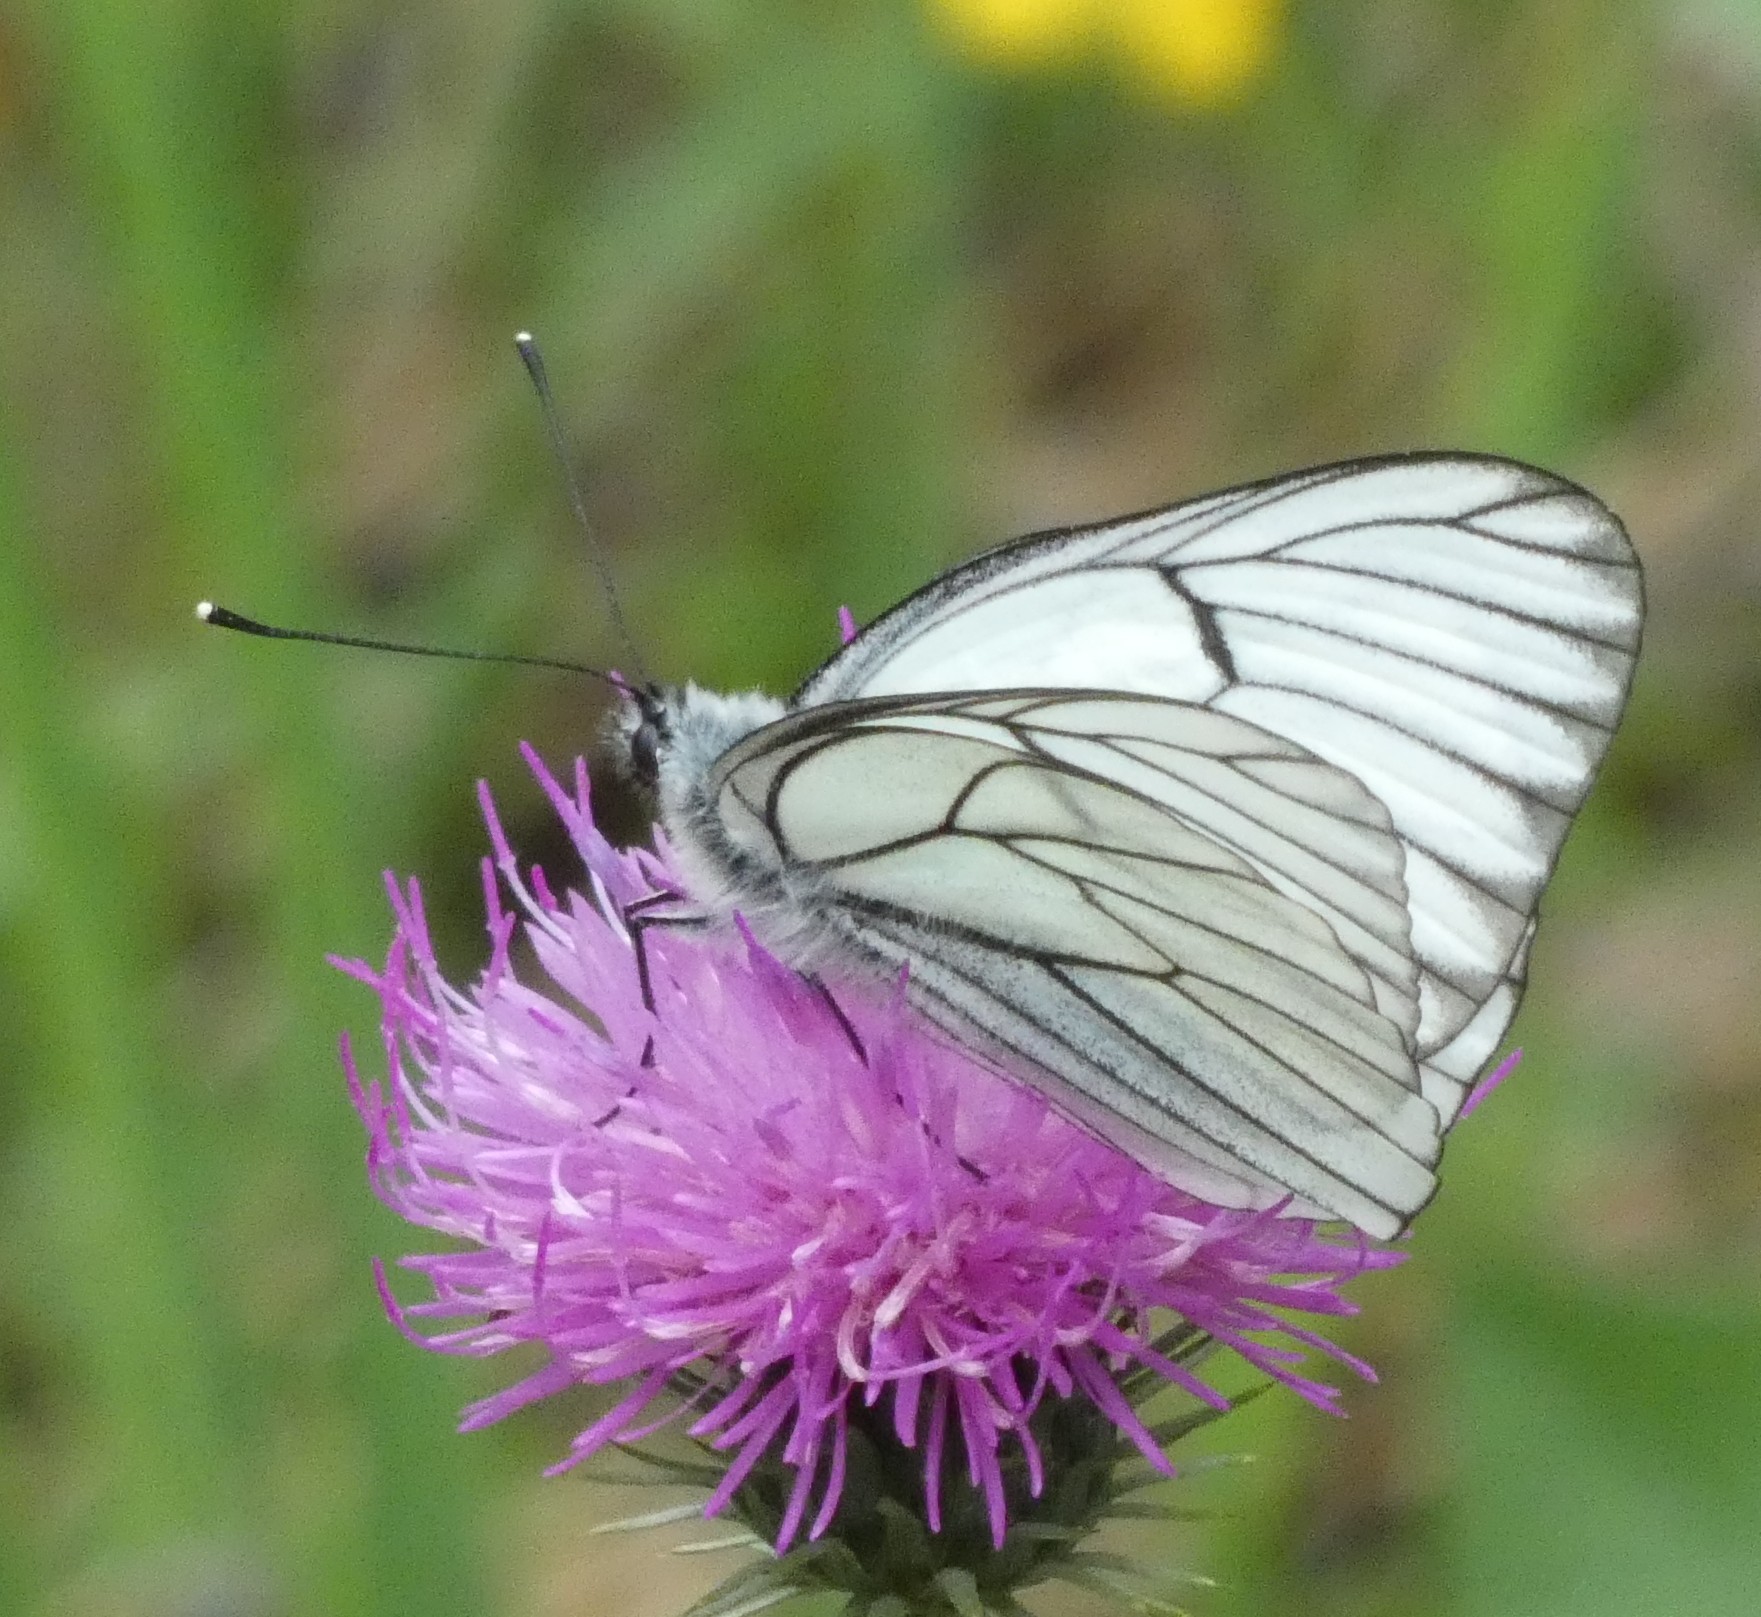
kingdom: Animalia
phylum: Arthropoda
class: Insecta
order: Lepidoptera
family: Pieridae
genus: Aporia
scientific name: Aporia crataegi
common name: Black-veined white
